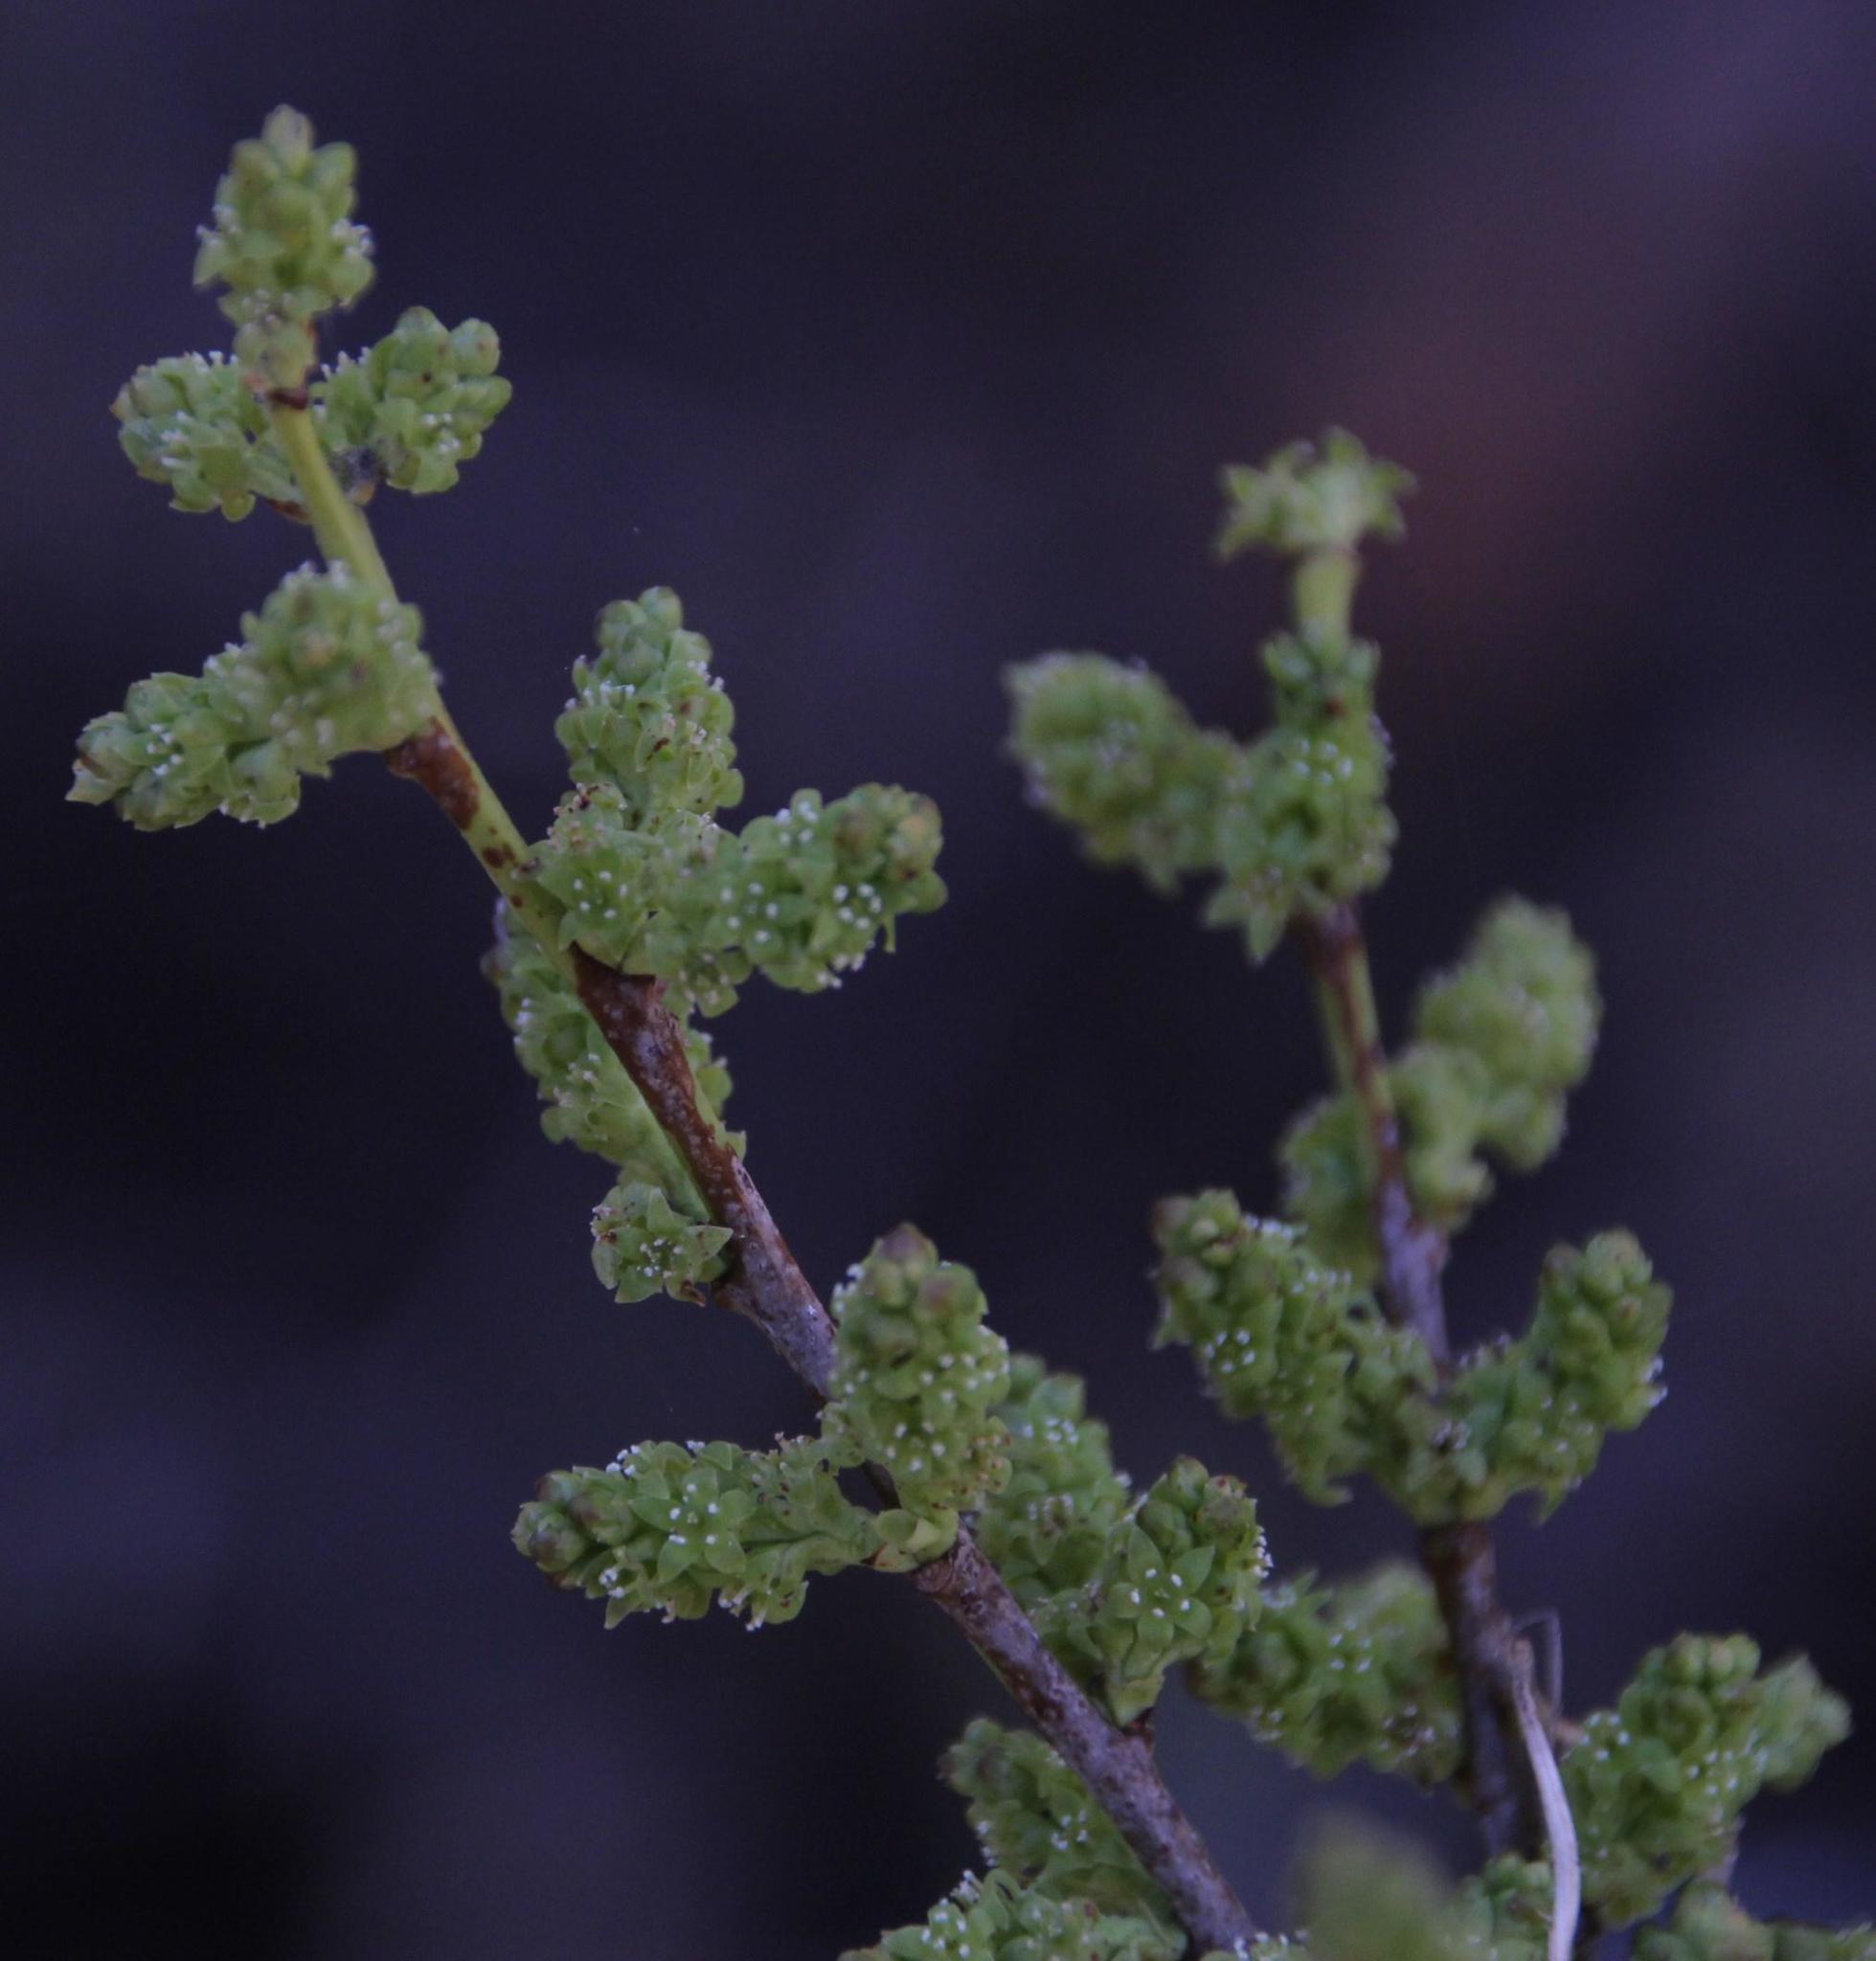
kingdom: Plantae
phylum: Tracheophyta
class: Magnoliopsida
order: Santalales
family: Santalaceae
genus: Myoschilos
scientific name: Myoschilos oblongum
